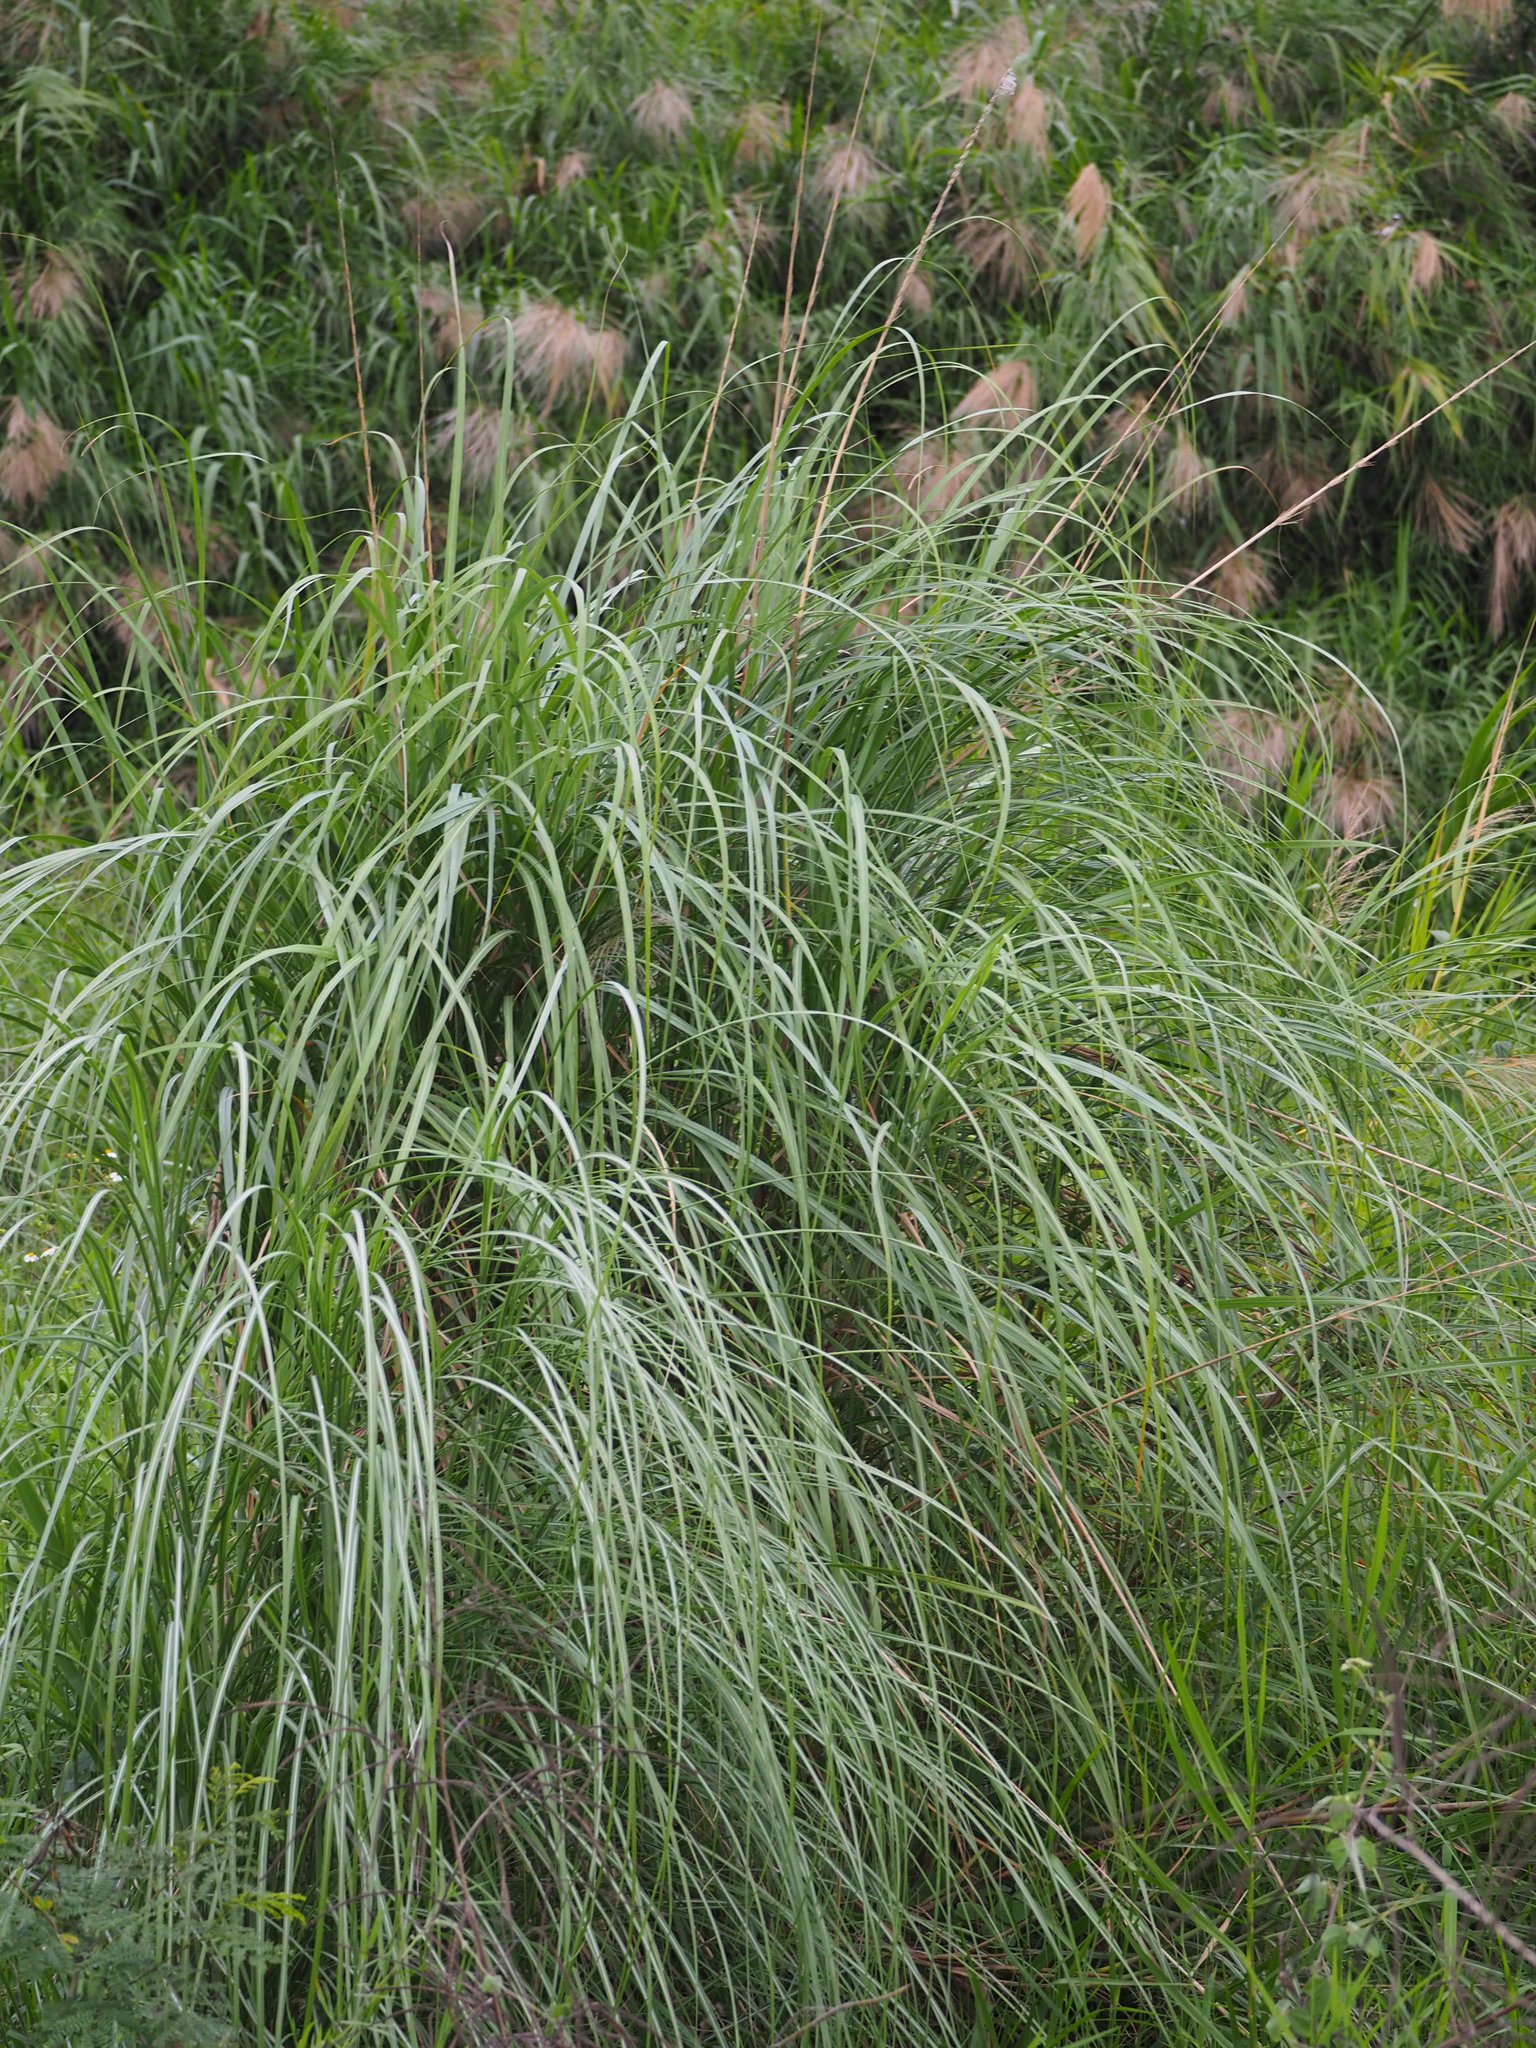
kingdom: Plantae
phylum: Tracheophyta
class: Liliopsida
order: Poales
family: Poaceae
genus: Saccharum
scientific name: Saccharum spontaneum
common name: Wild sugarcane
